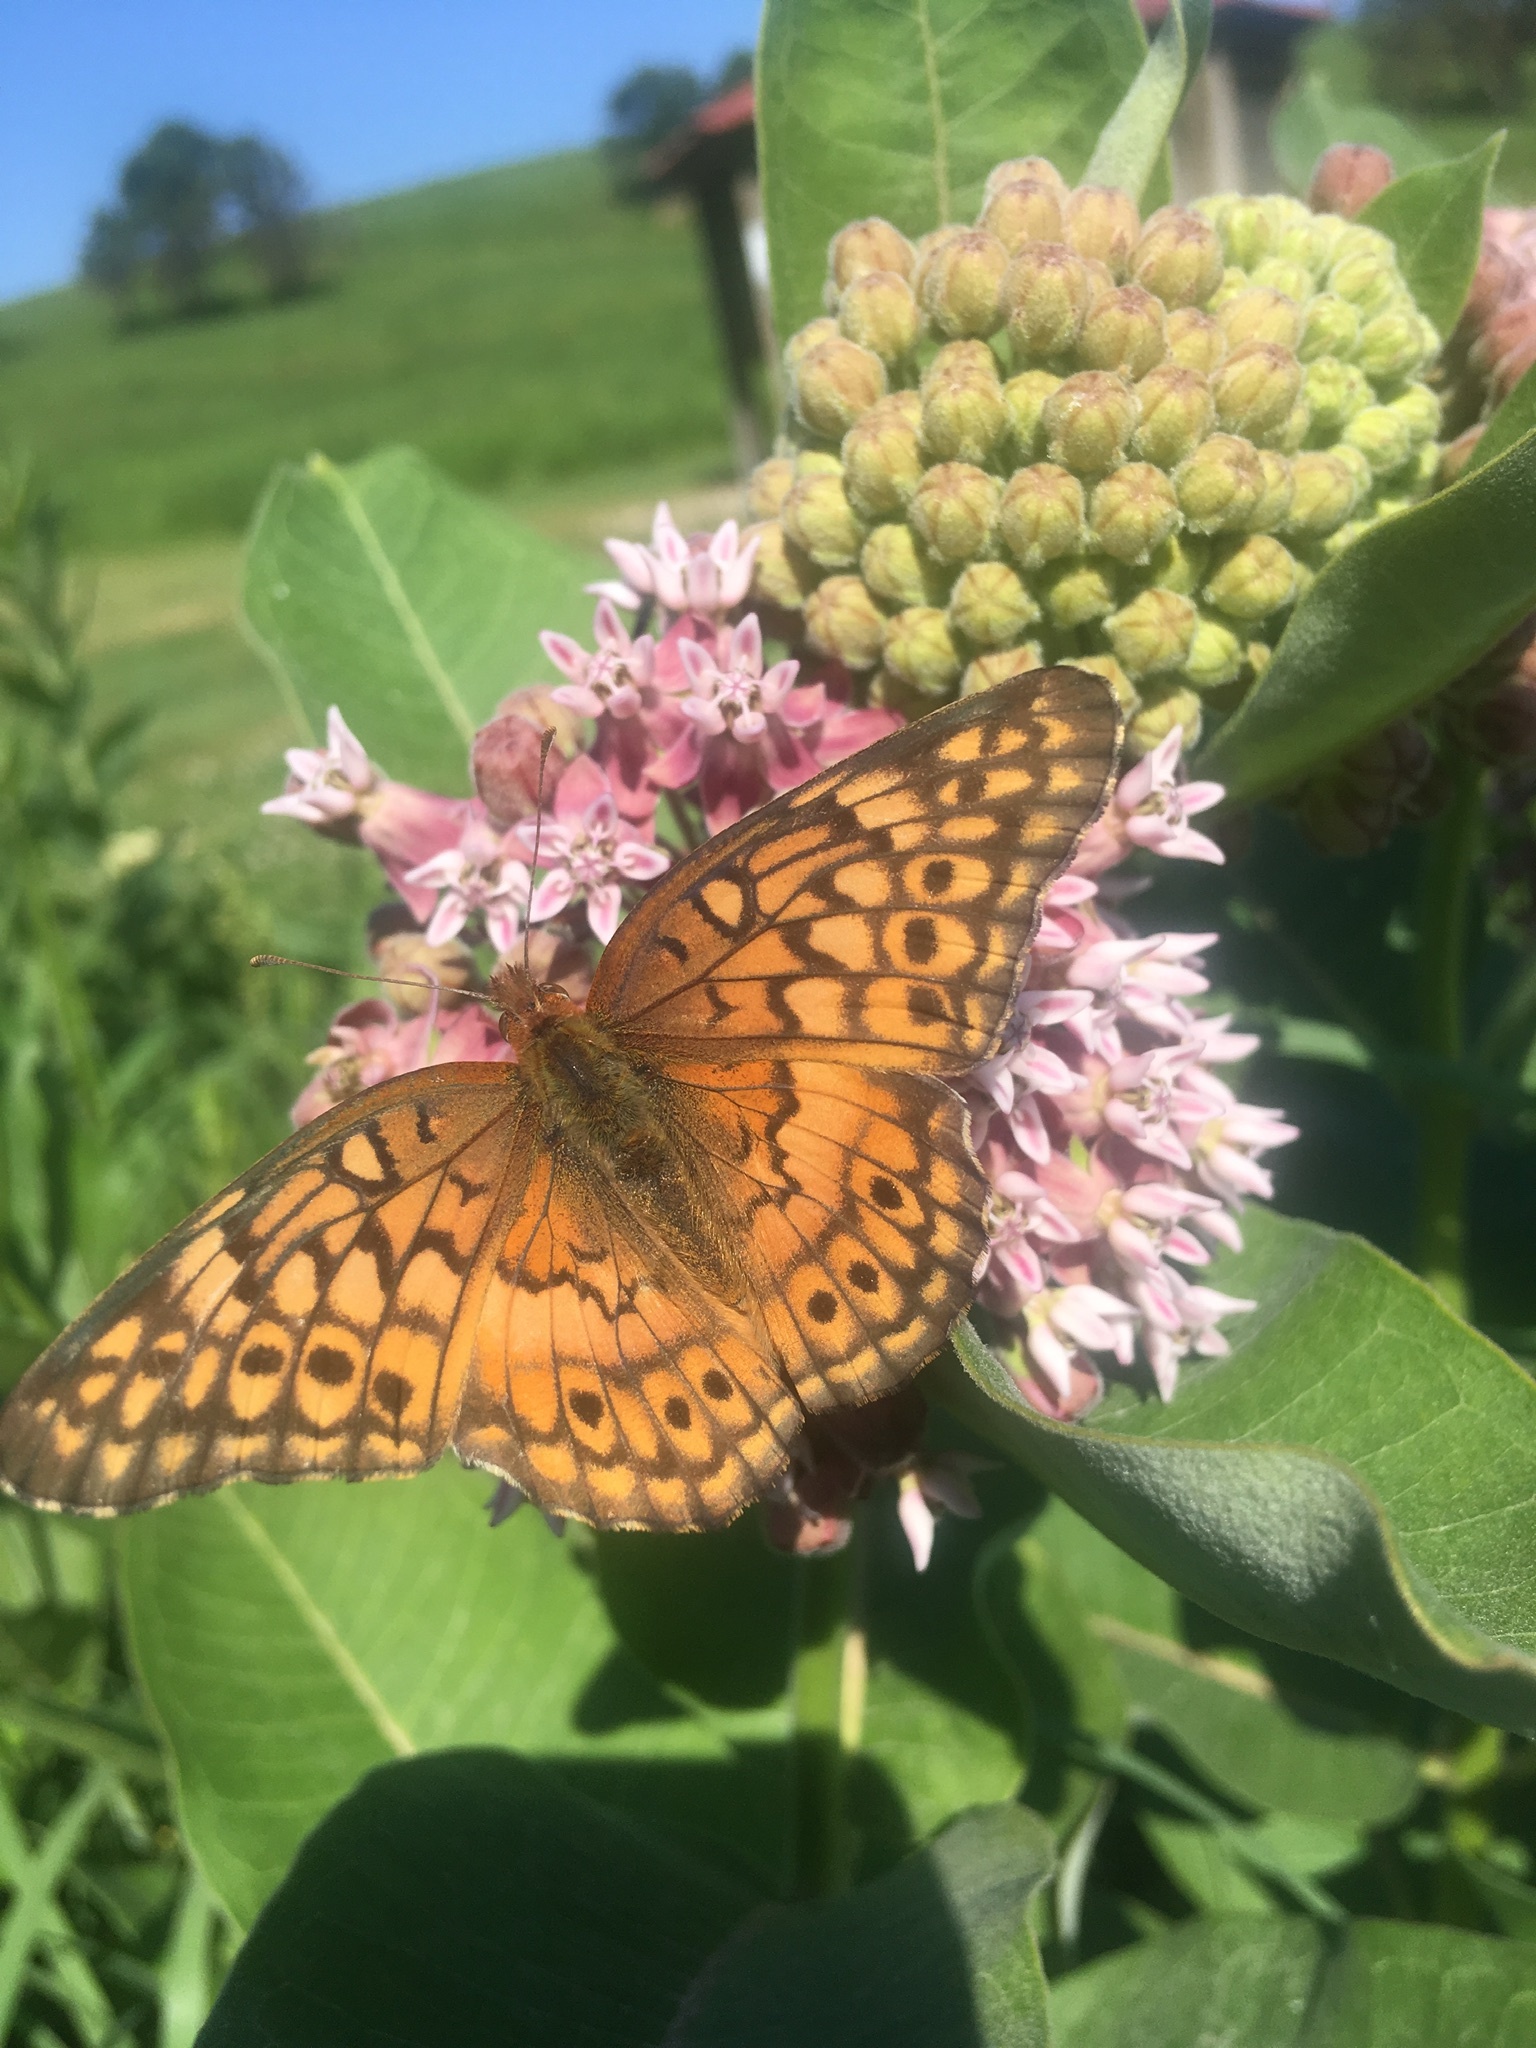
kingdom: Animalia
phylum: Arthropoda
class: Insecta
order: Lepidoptera
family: Nymphalidae
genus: Euptoieta
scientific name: Euptoieta claudia
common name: Variegated fritillary
